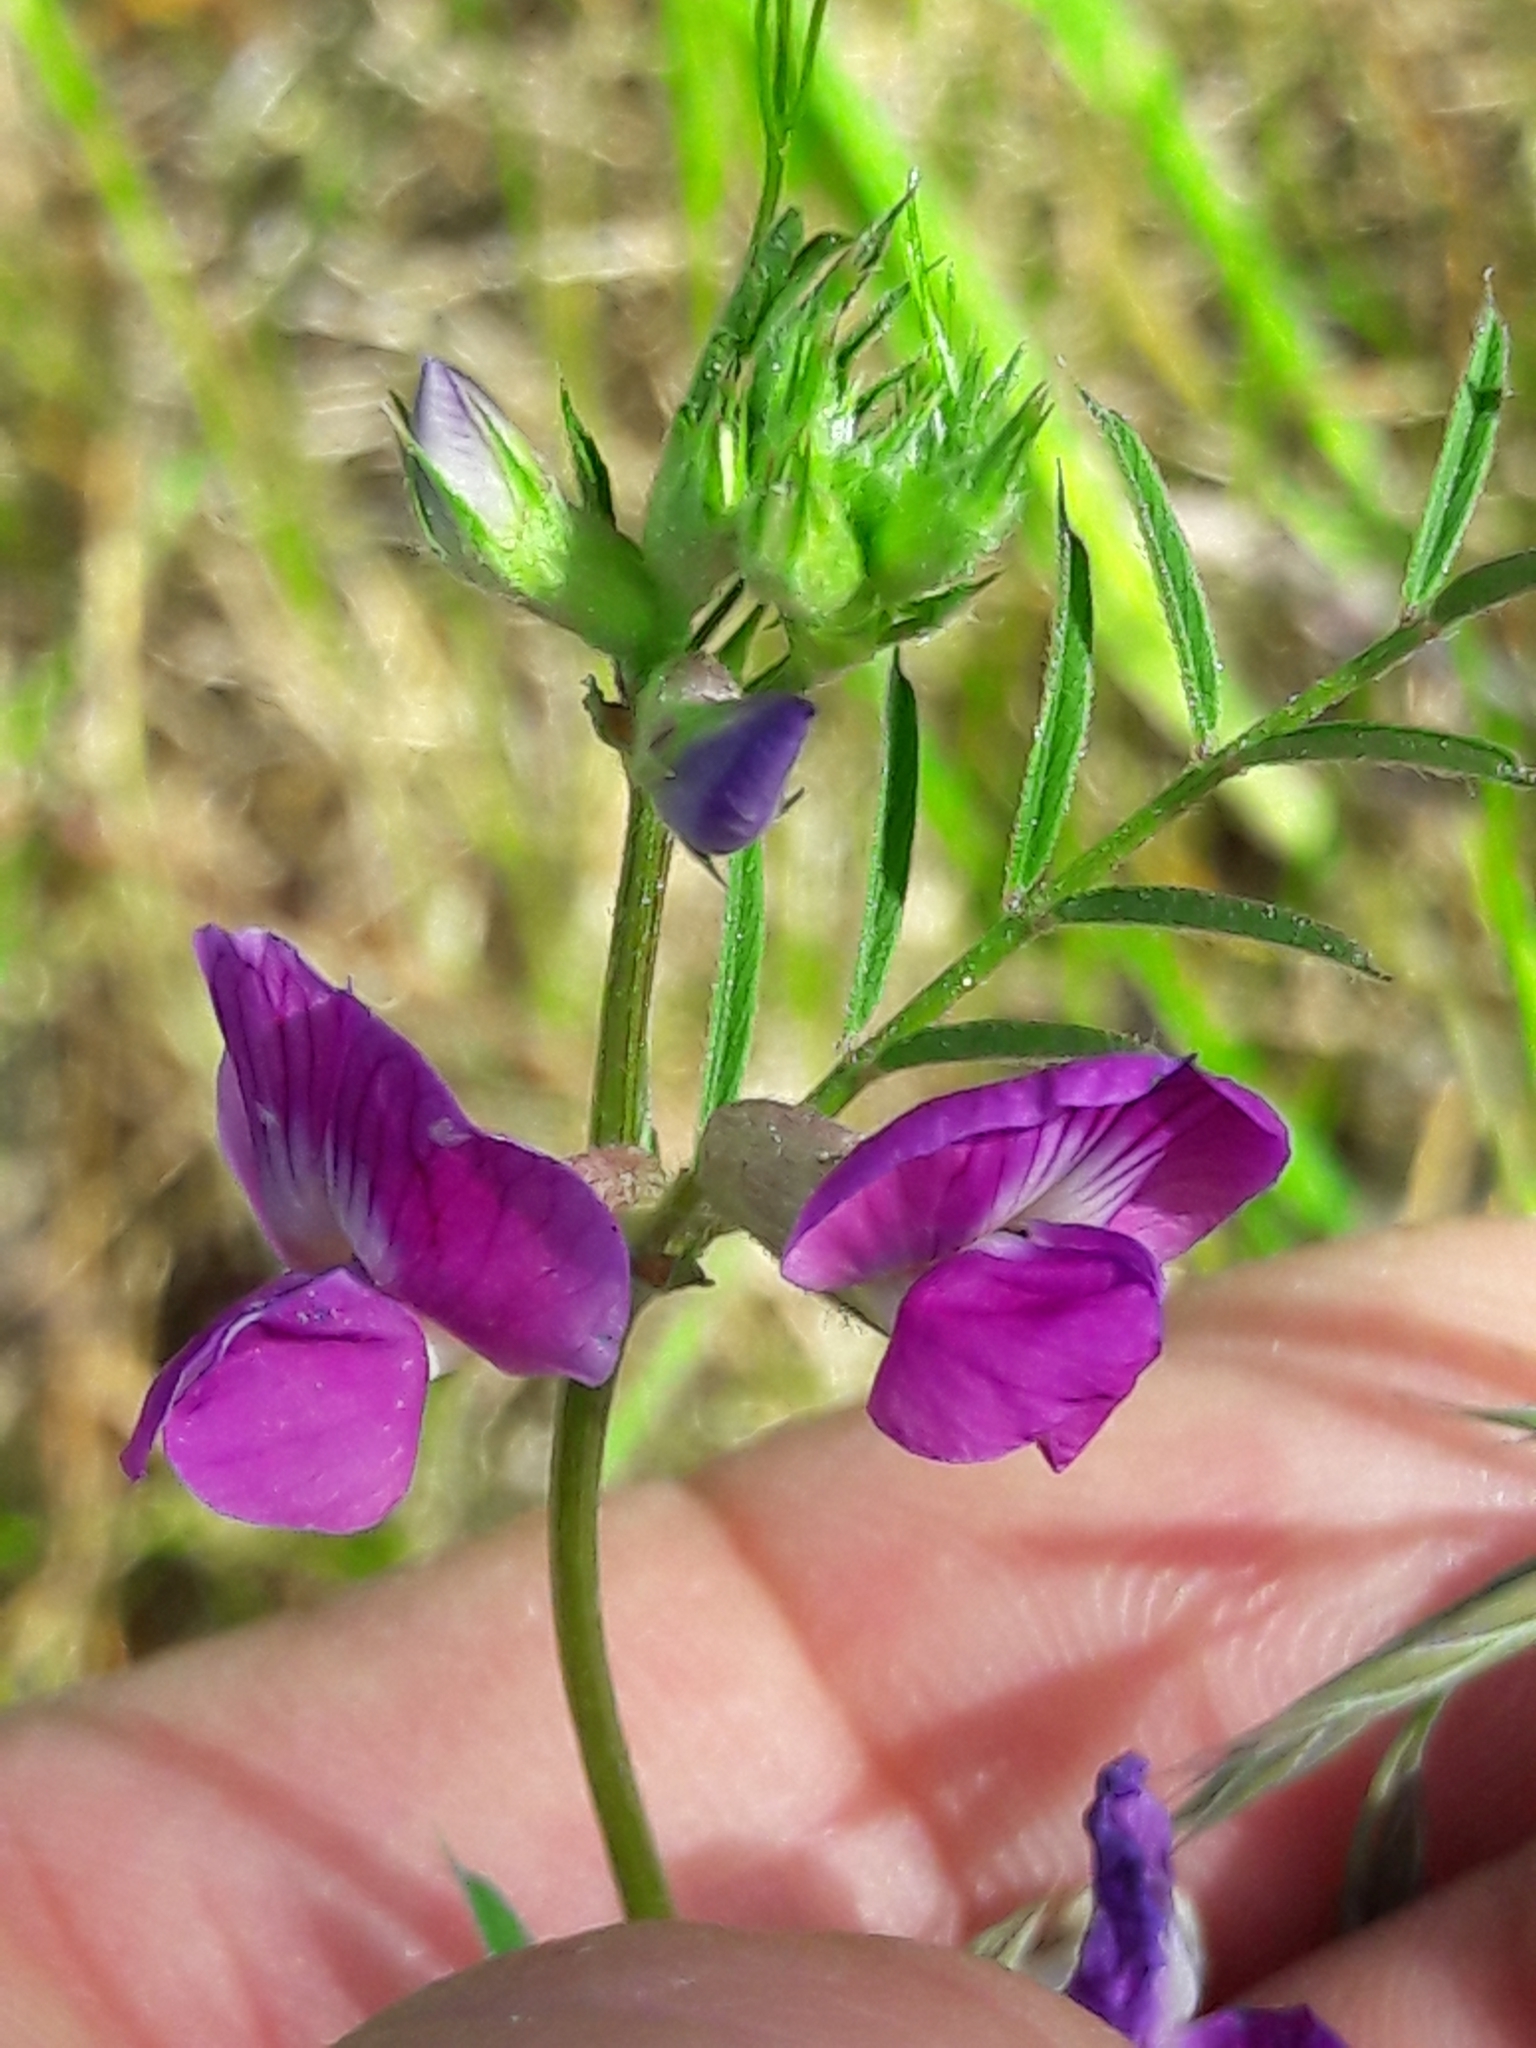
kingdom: Plantae
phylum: Tracheophyta
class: Magnoliopsida
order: Fabales
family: Fabaceae
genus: Vicia
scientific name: Vicia sativa
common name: Garden vetch
